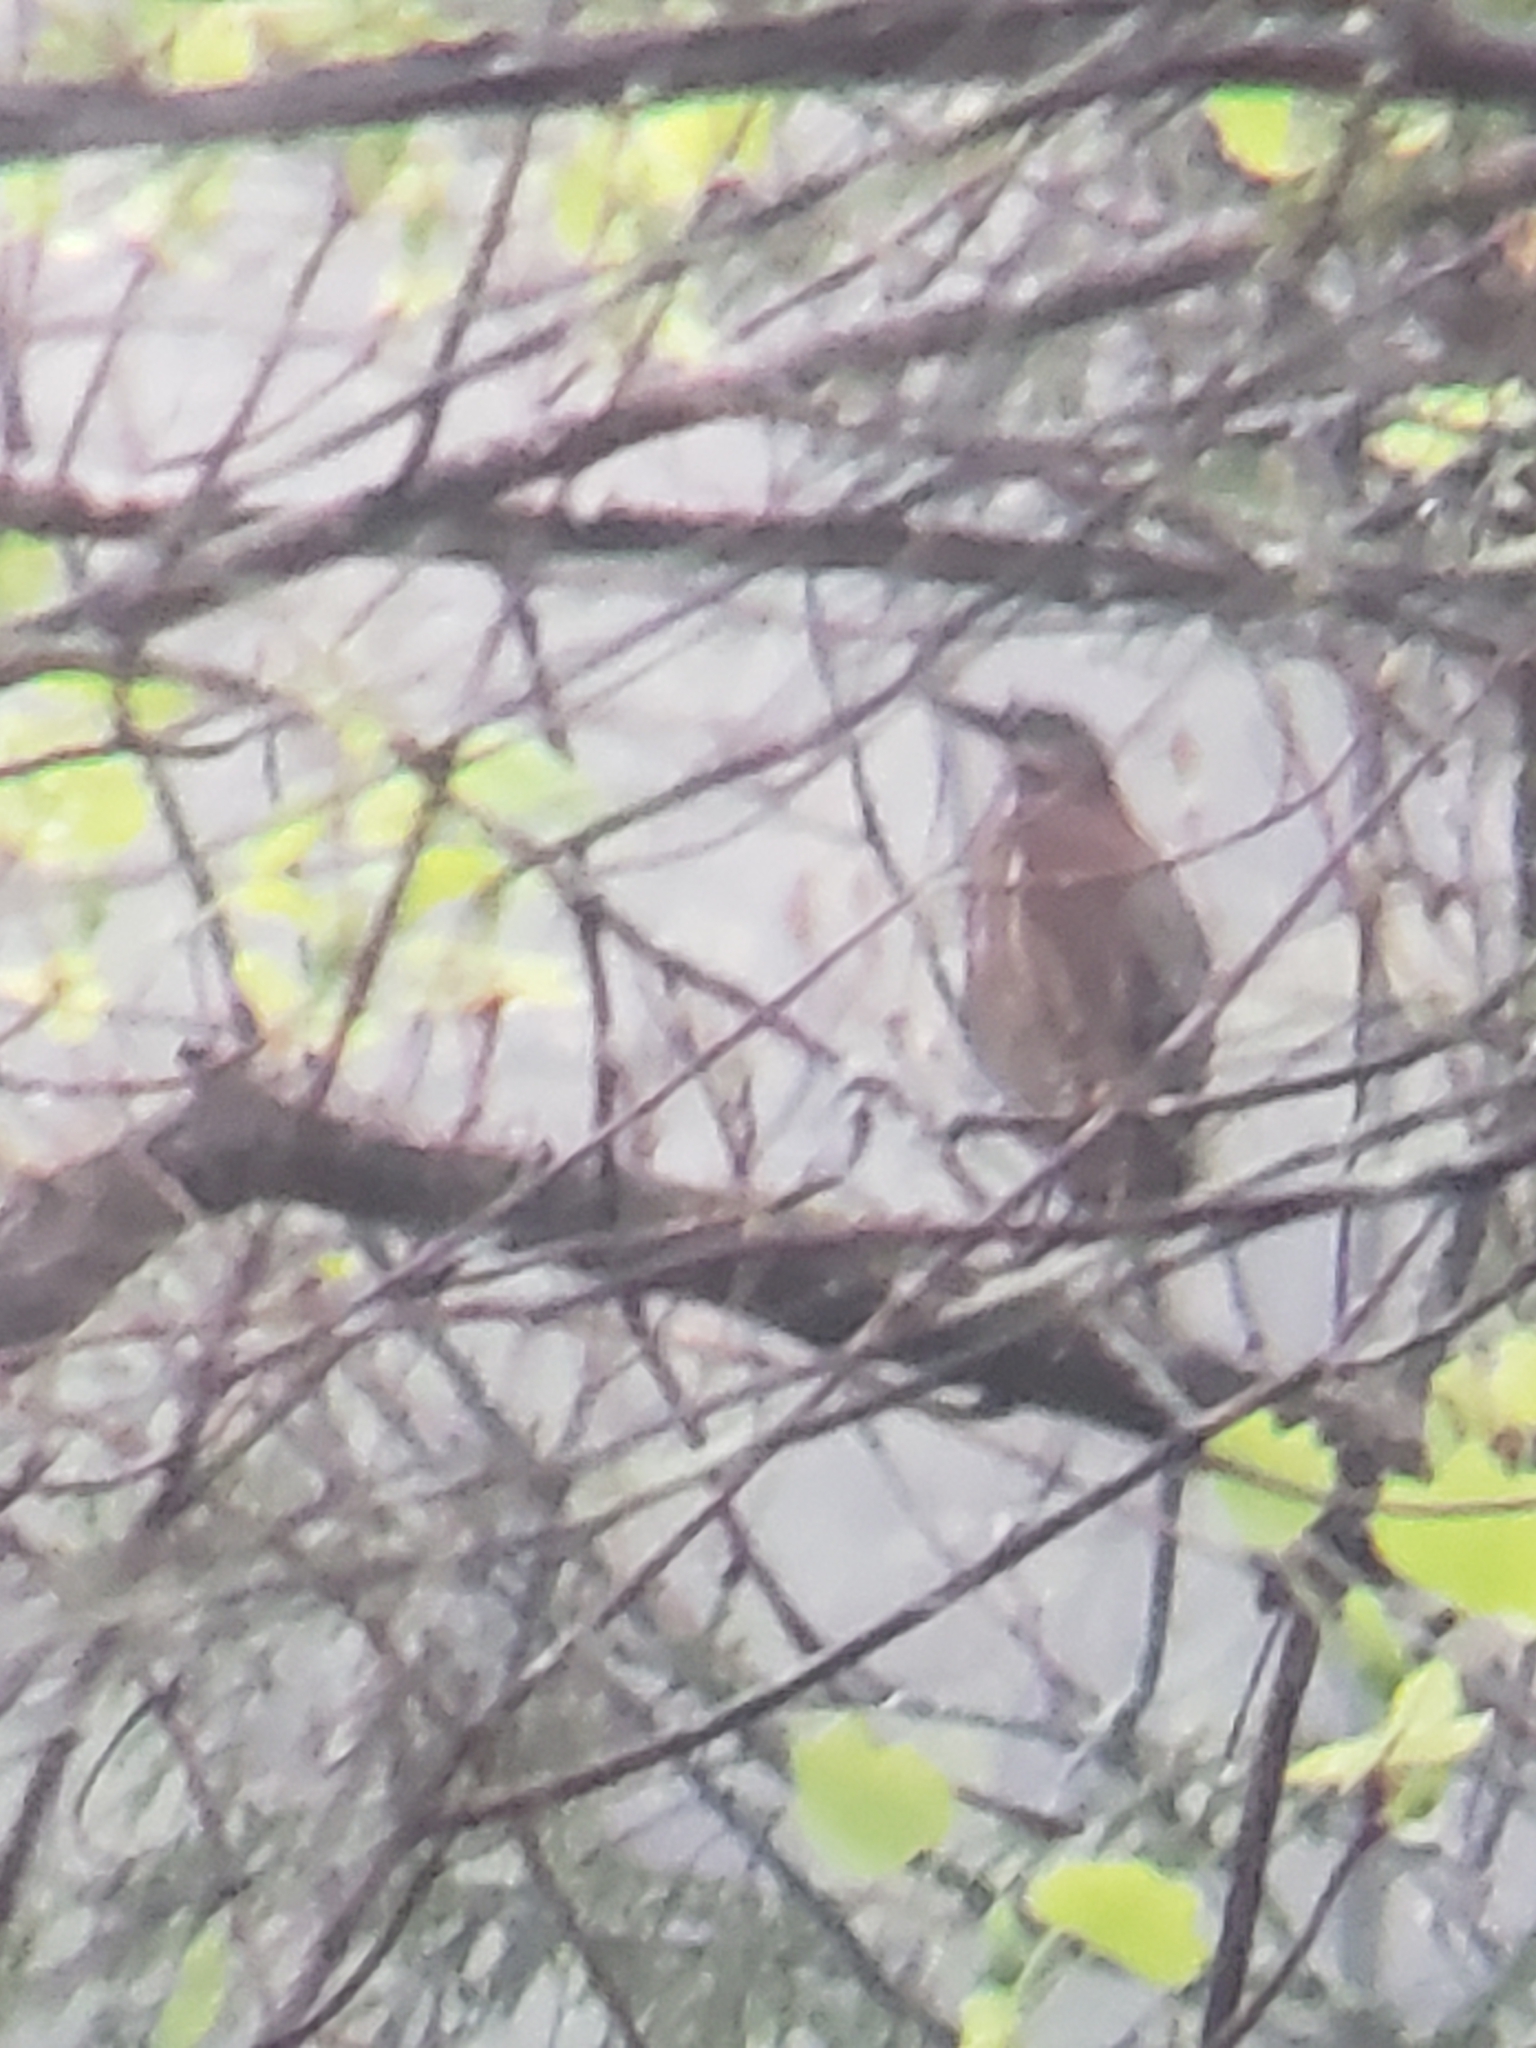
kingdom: Animalia
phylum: Chordata
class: Aves
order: Pelecaniformes
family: Ardeidae
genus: Butorides
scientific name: Butorides virescens
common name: Green heron
